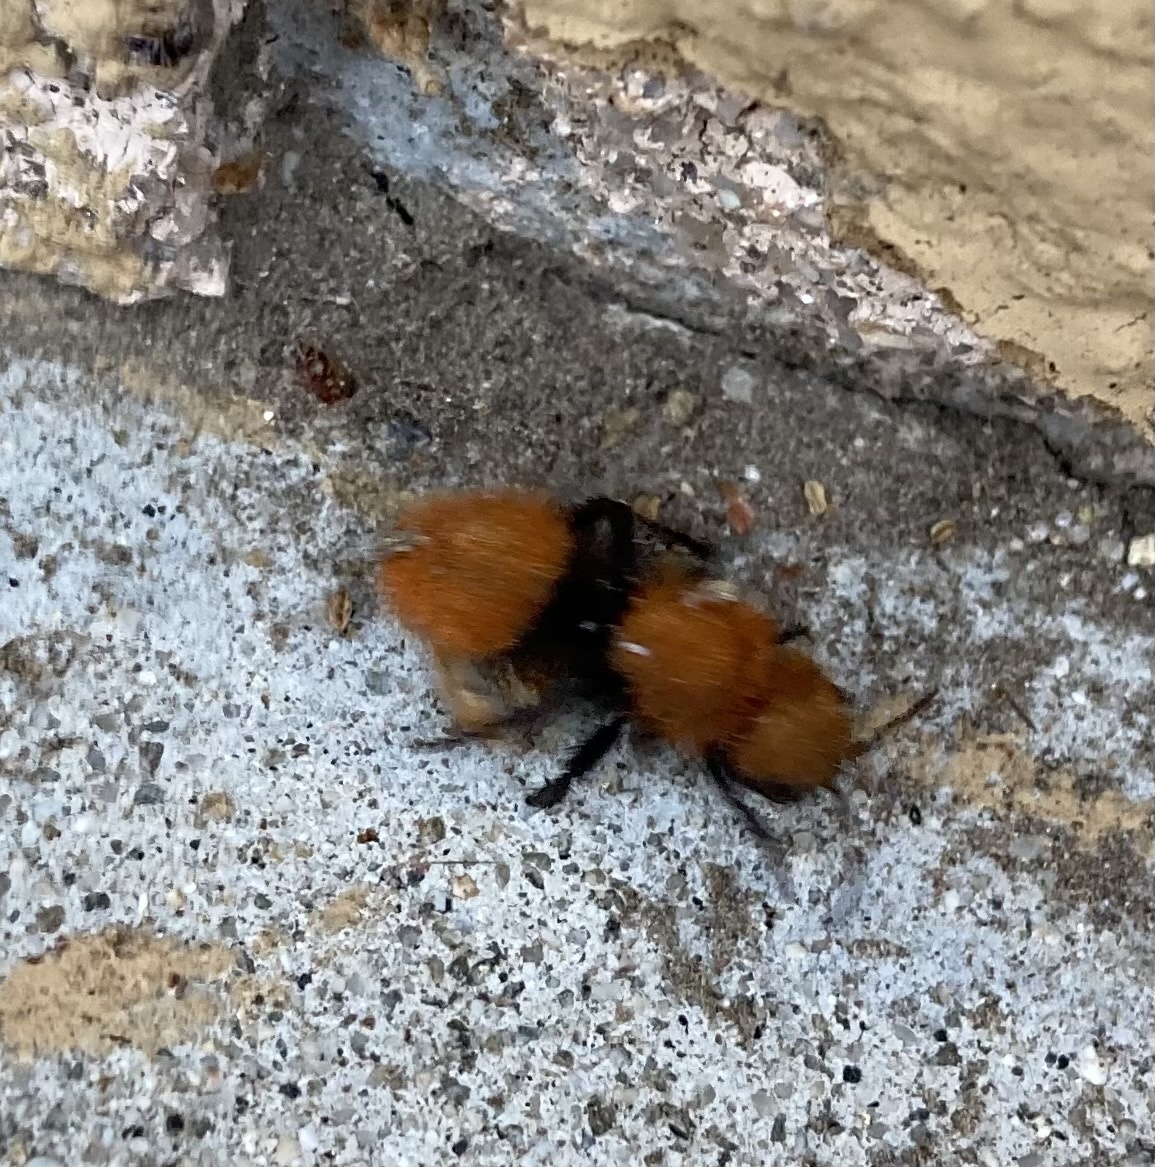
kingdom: Animalia
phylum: Arthropoda
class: Insecta
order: Hymenoptera
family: Mutillidae
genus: Dasymutilla
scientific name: Dasymutilla
